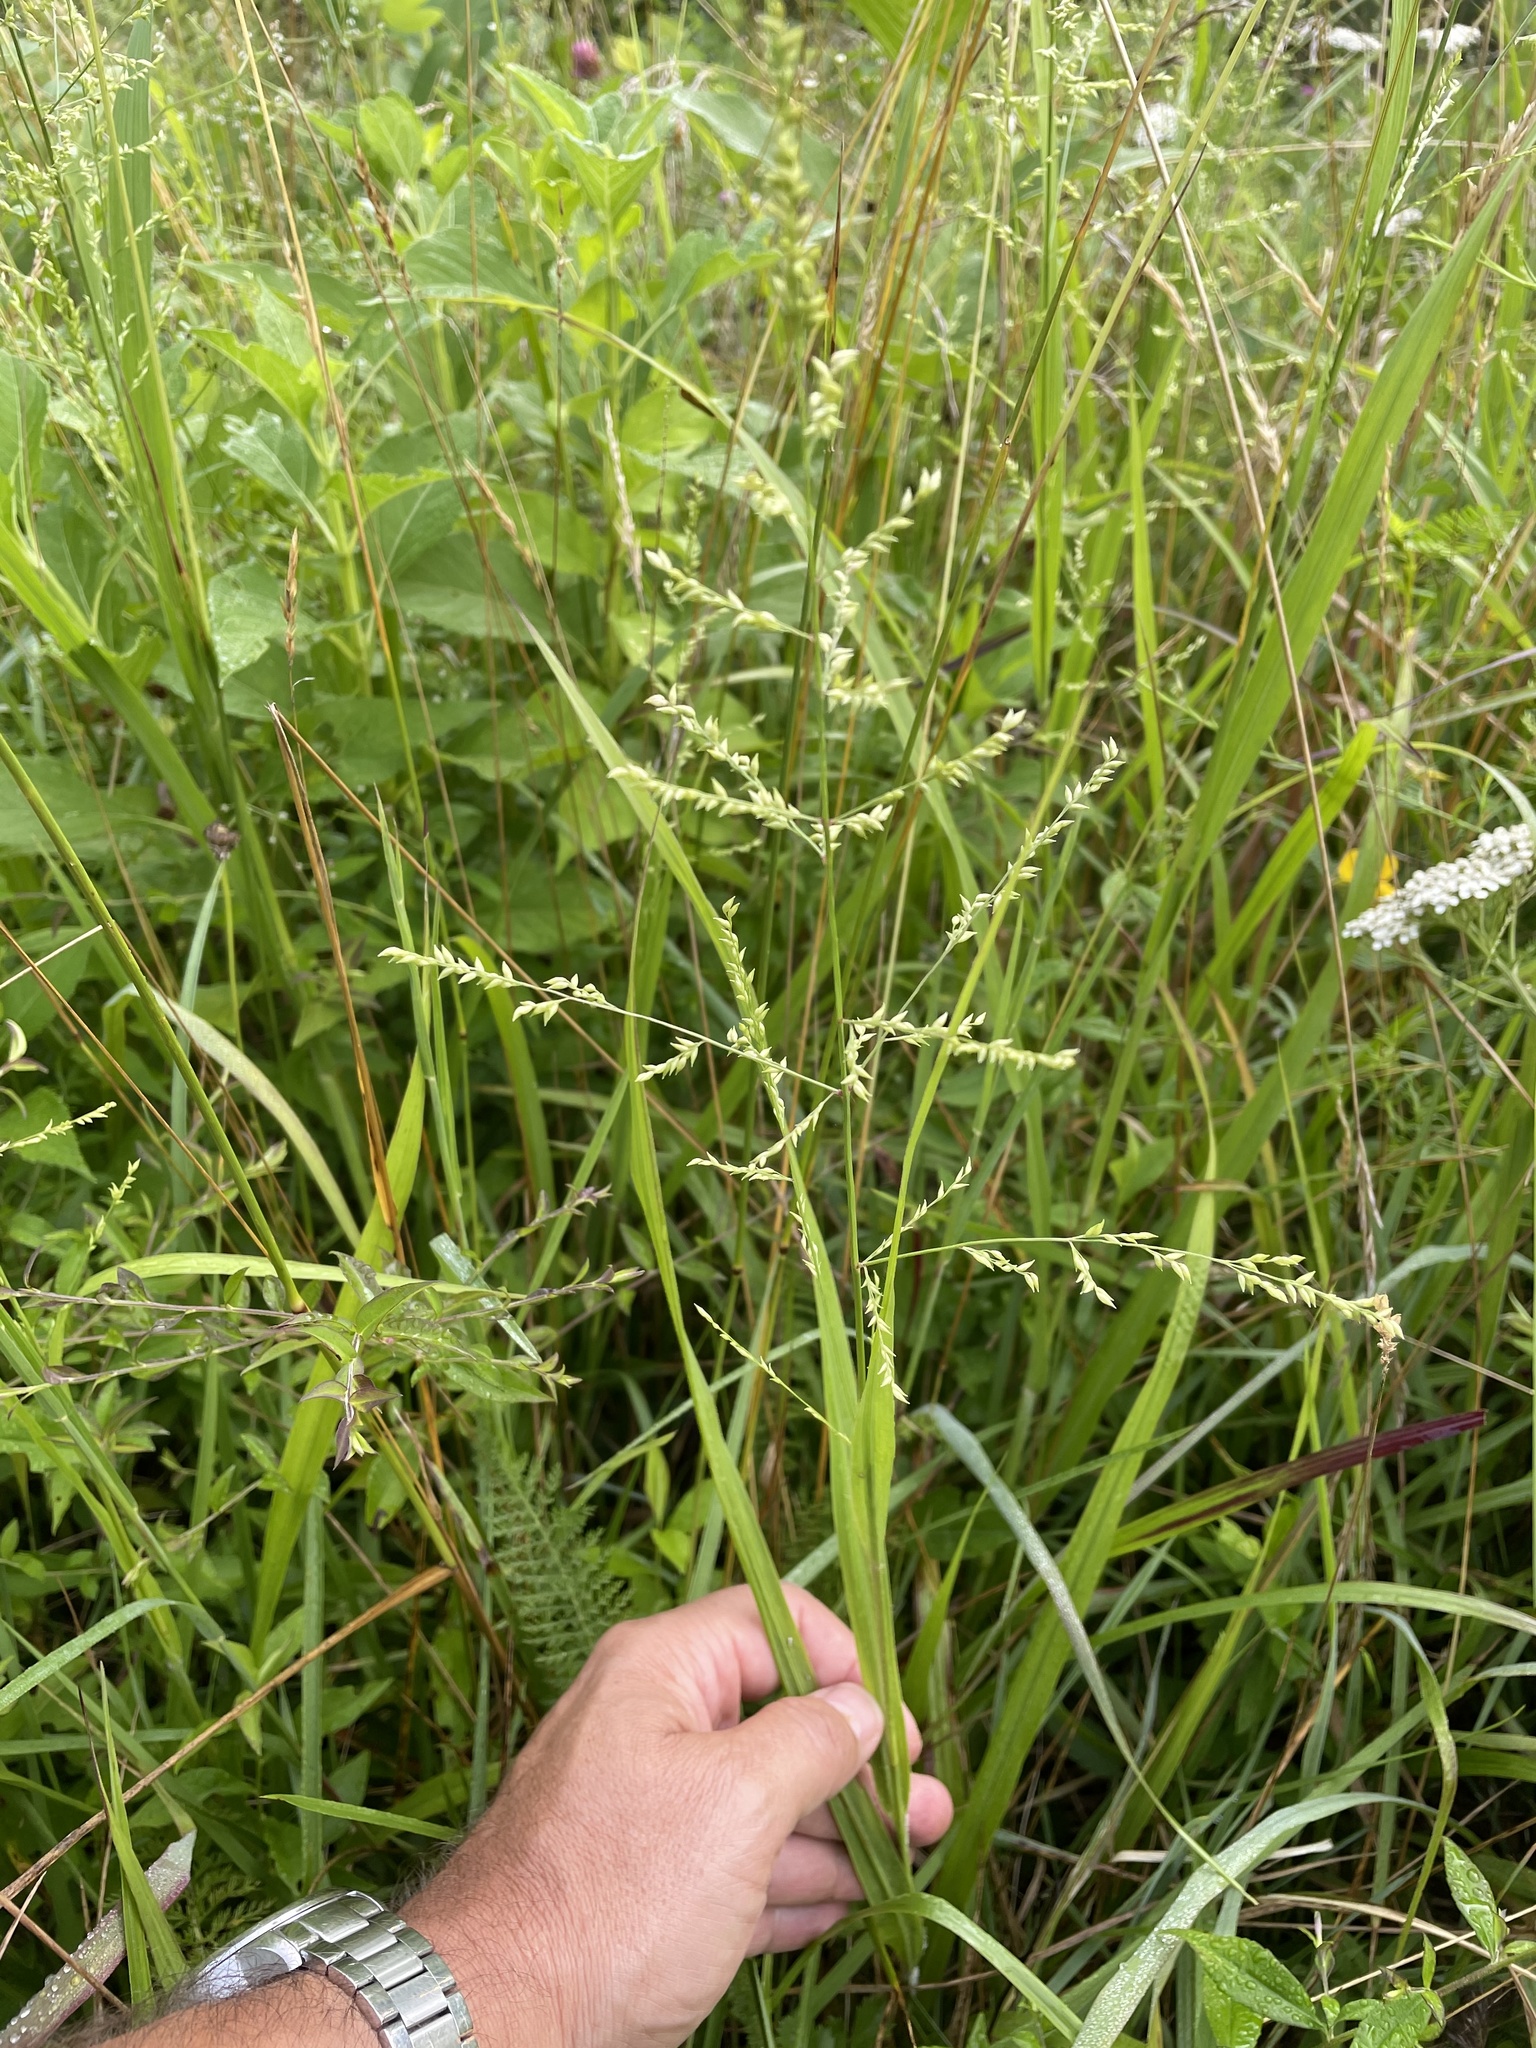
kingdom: Plantae
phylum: Tracheophyta
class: Liliopsida
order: Poales
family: Poaceae
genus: Coleataenia
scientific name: Coleataenia anceps
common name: Beaked panic grass
